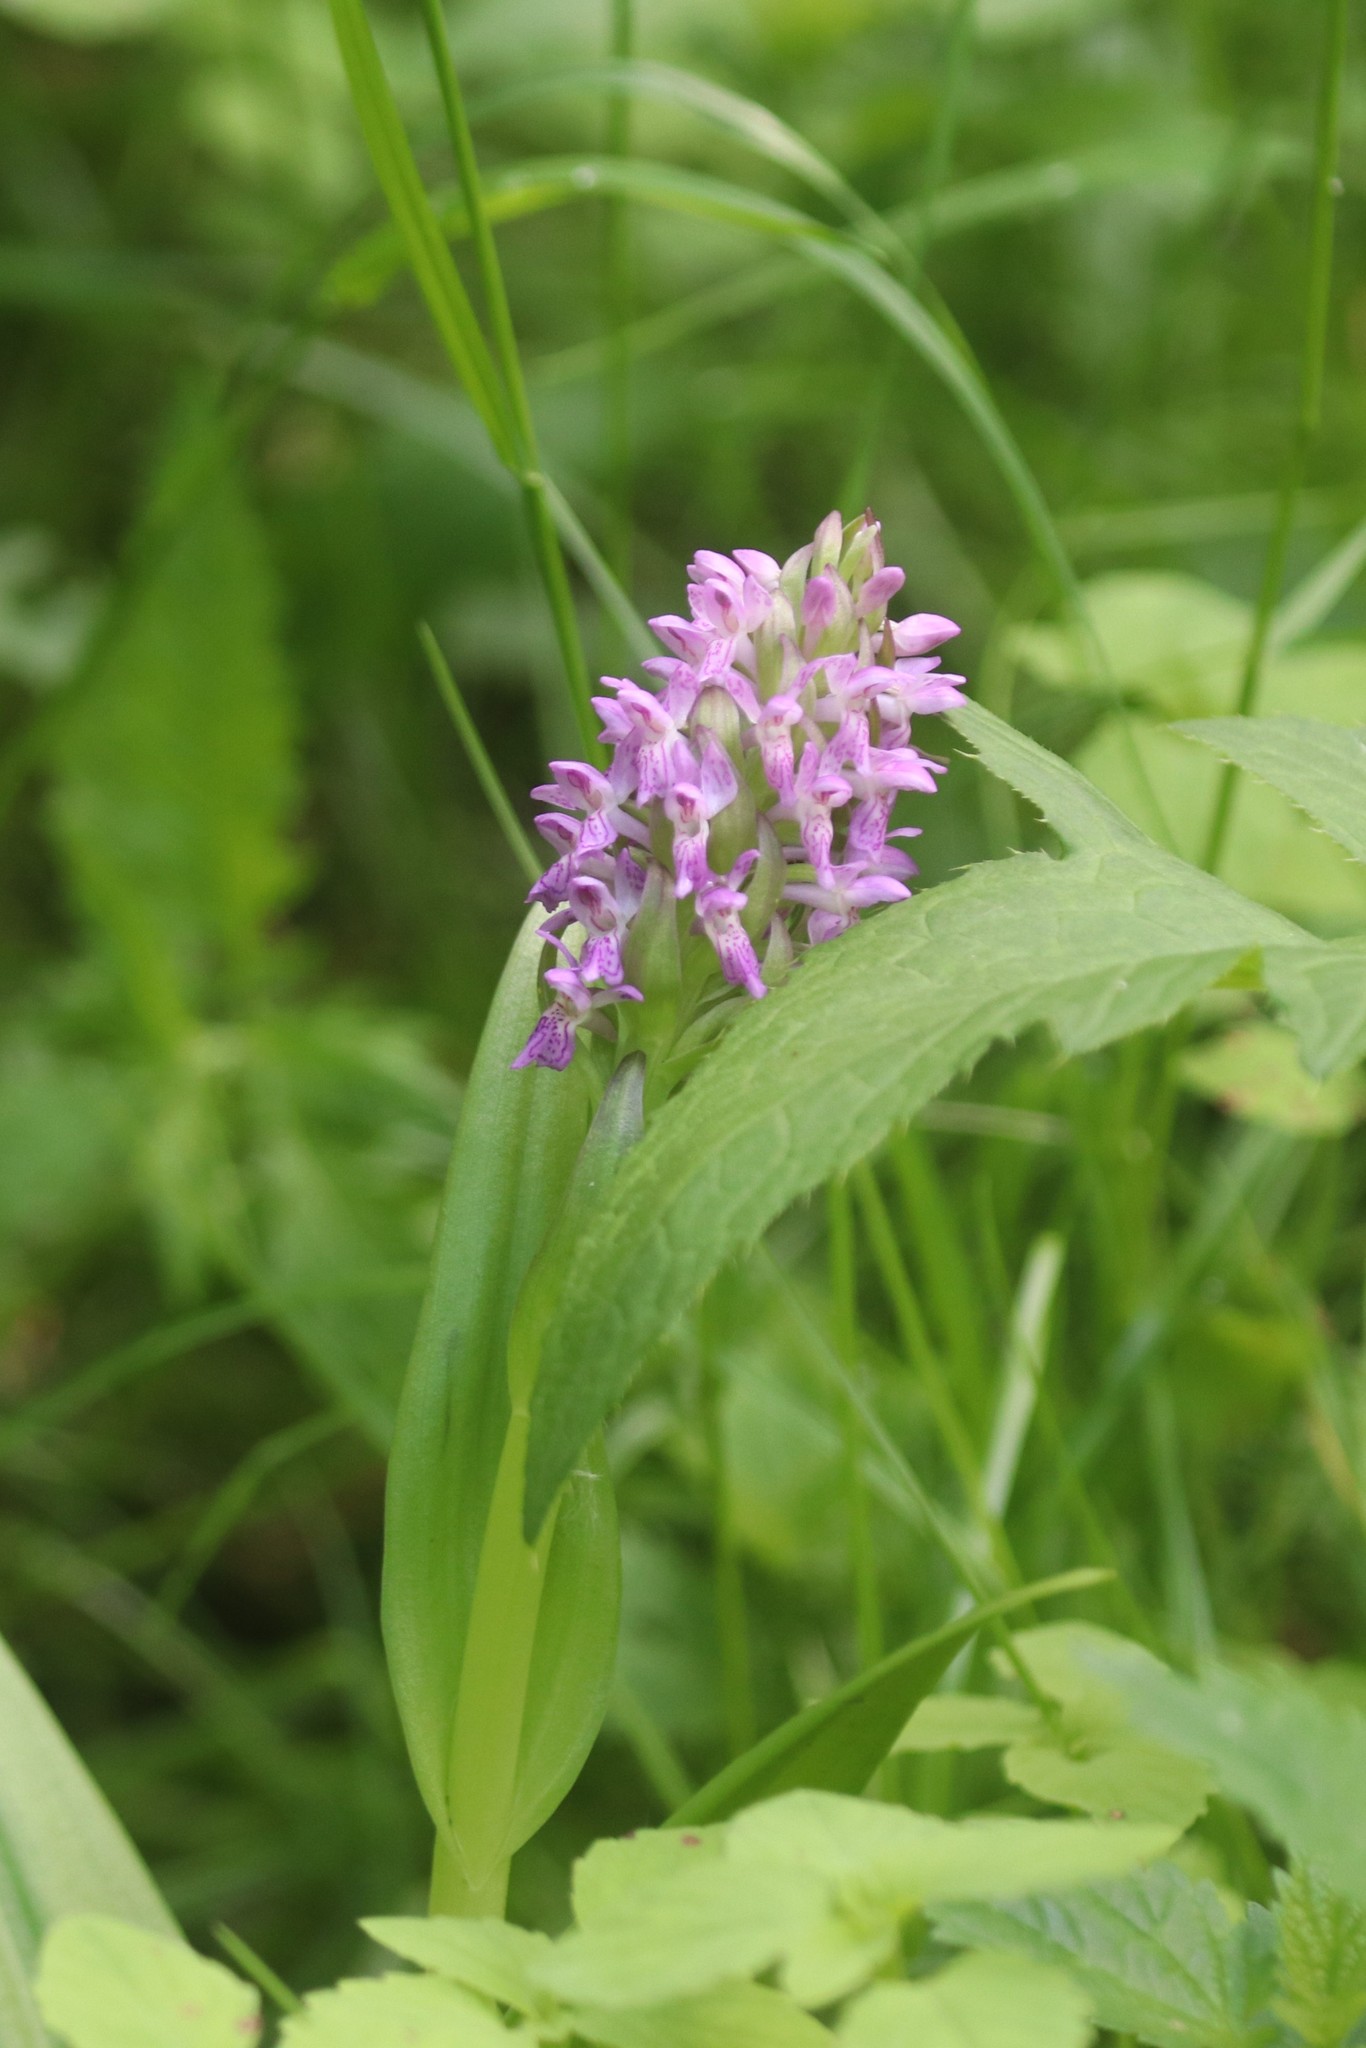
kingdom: Plantae
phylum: Tracheophyta
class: Liliopsida
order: Asparagales
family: Orchidaceae
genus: Dactylorhiza
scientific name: Dactylorhiza incarnata
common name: Early marsh-orchid
